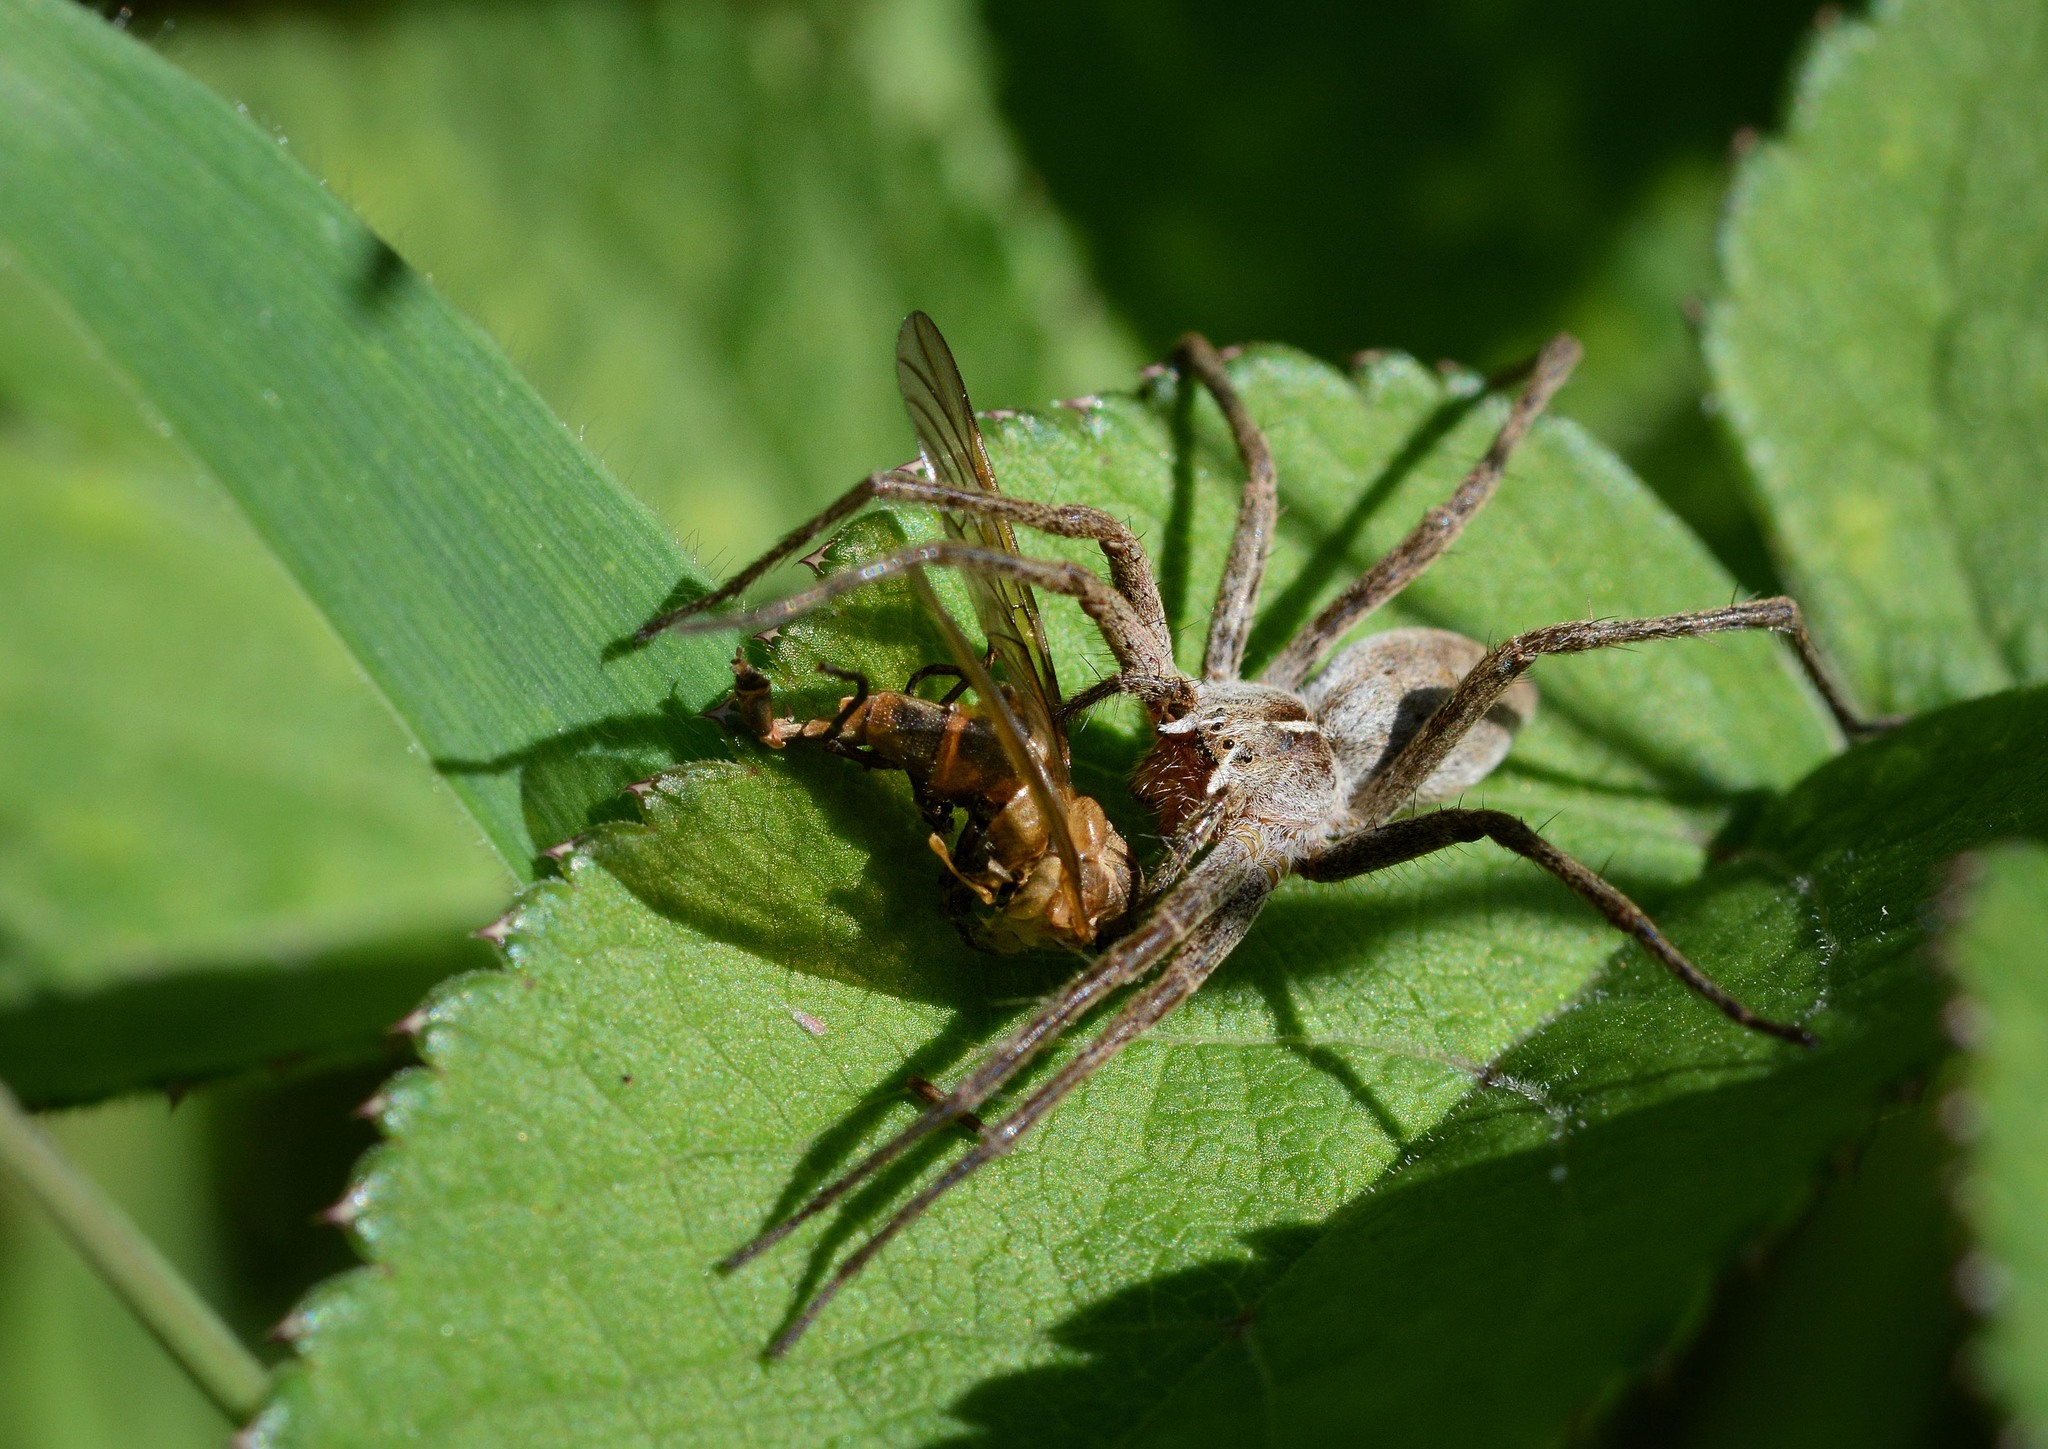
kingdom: Animalia
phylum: Arthropoda
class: Arachnida
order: Araneae
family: Pisauridae
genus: Pisaura
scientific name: Pisaura mirabilis
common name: Tent spider
